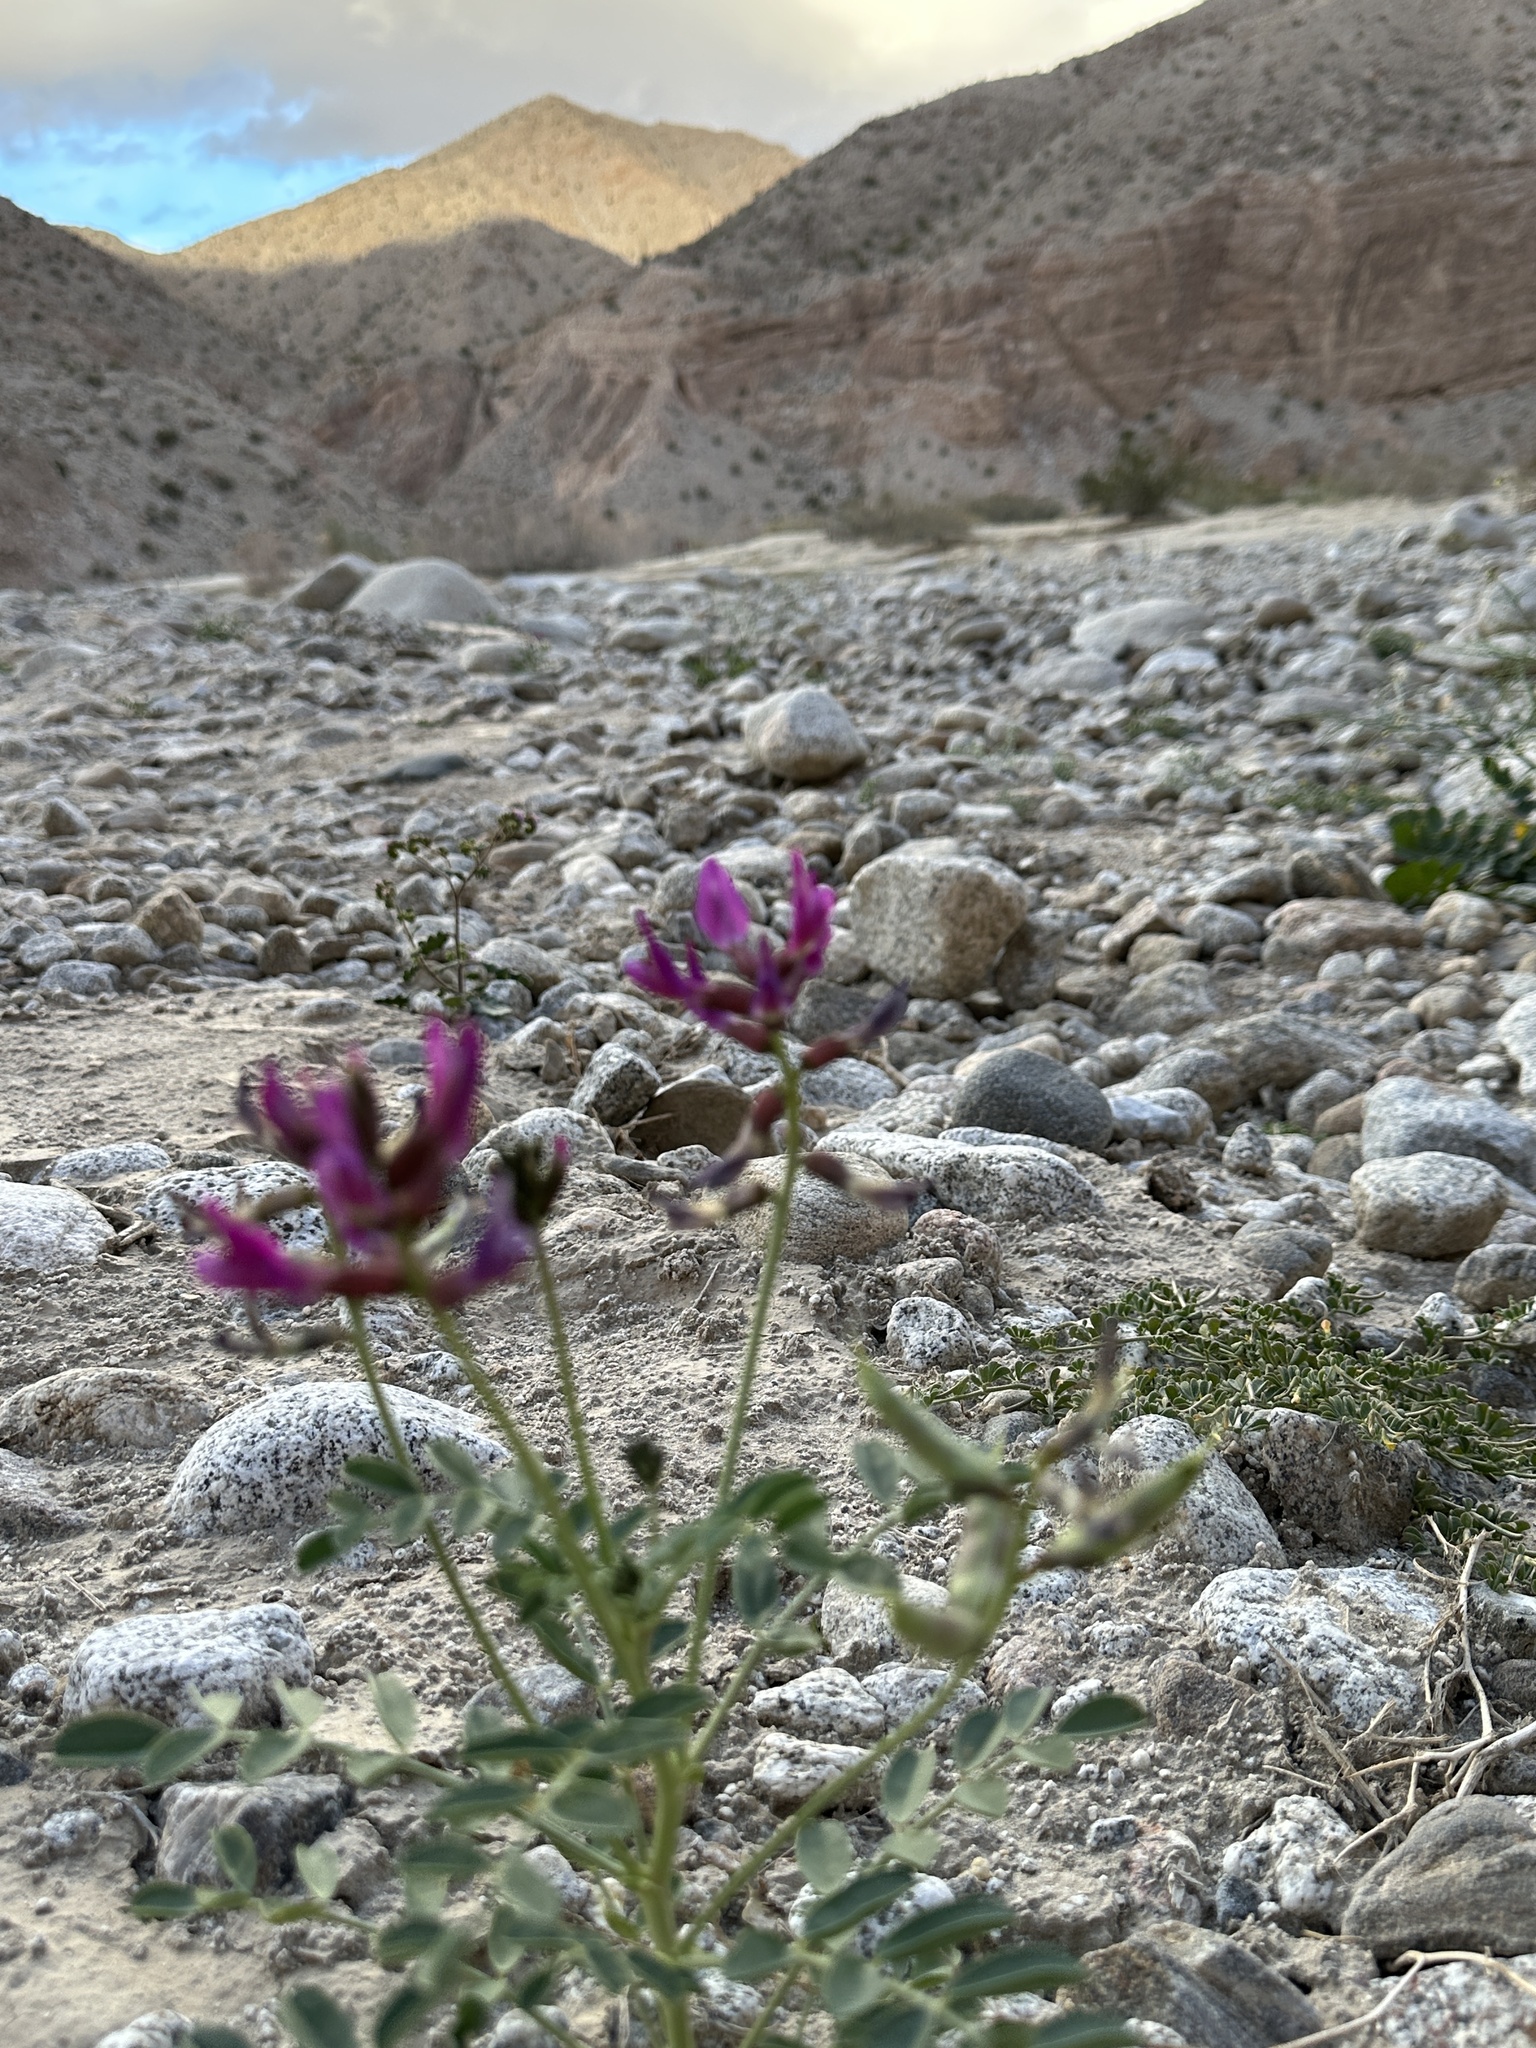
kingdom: Plantae
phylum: Tracheophyta
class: Magnoliopsida
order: Fabales
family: Fabaceae
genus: Astragalus
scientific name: Astragalus crotalariae
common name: Salton milkvetch
